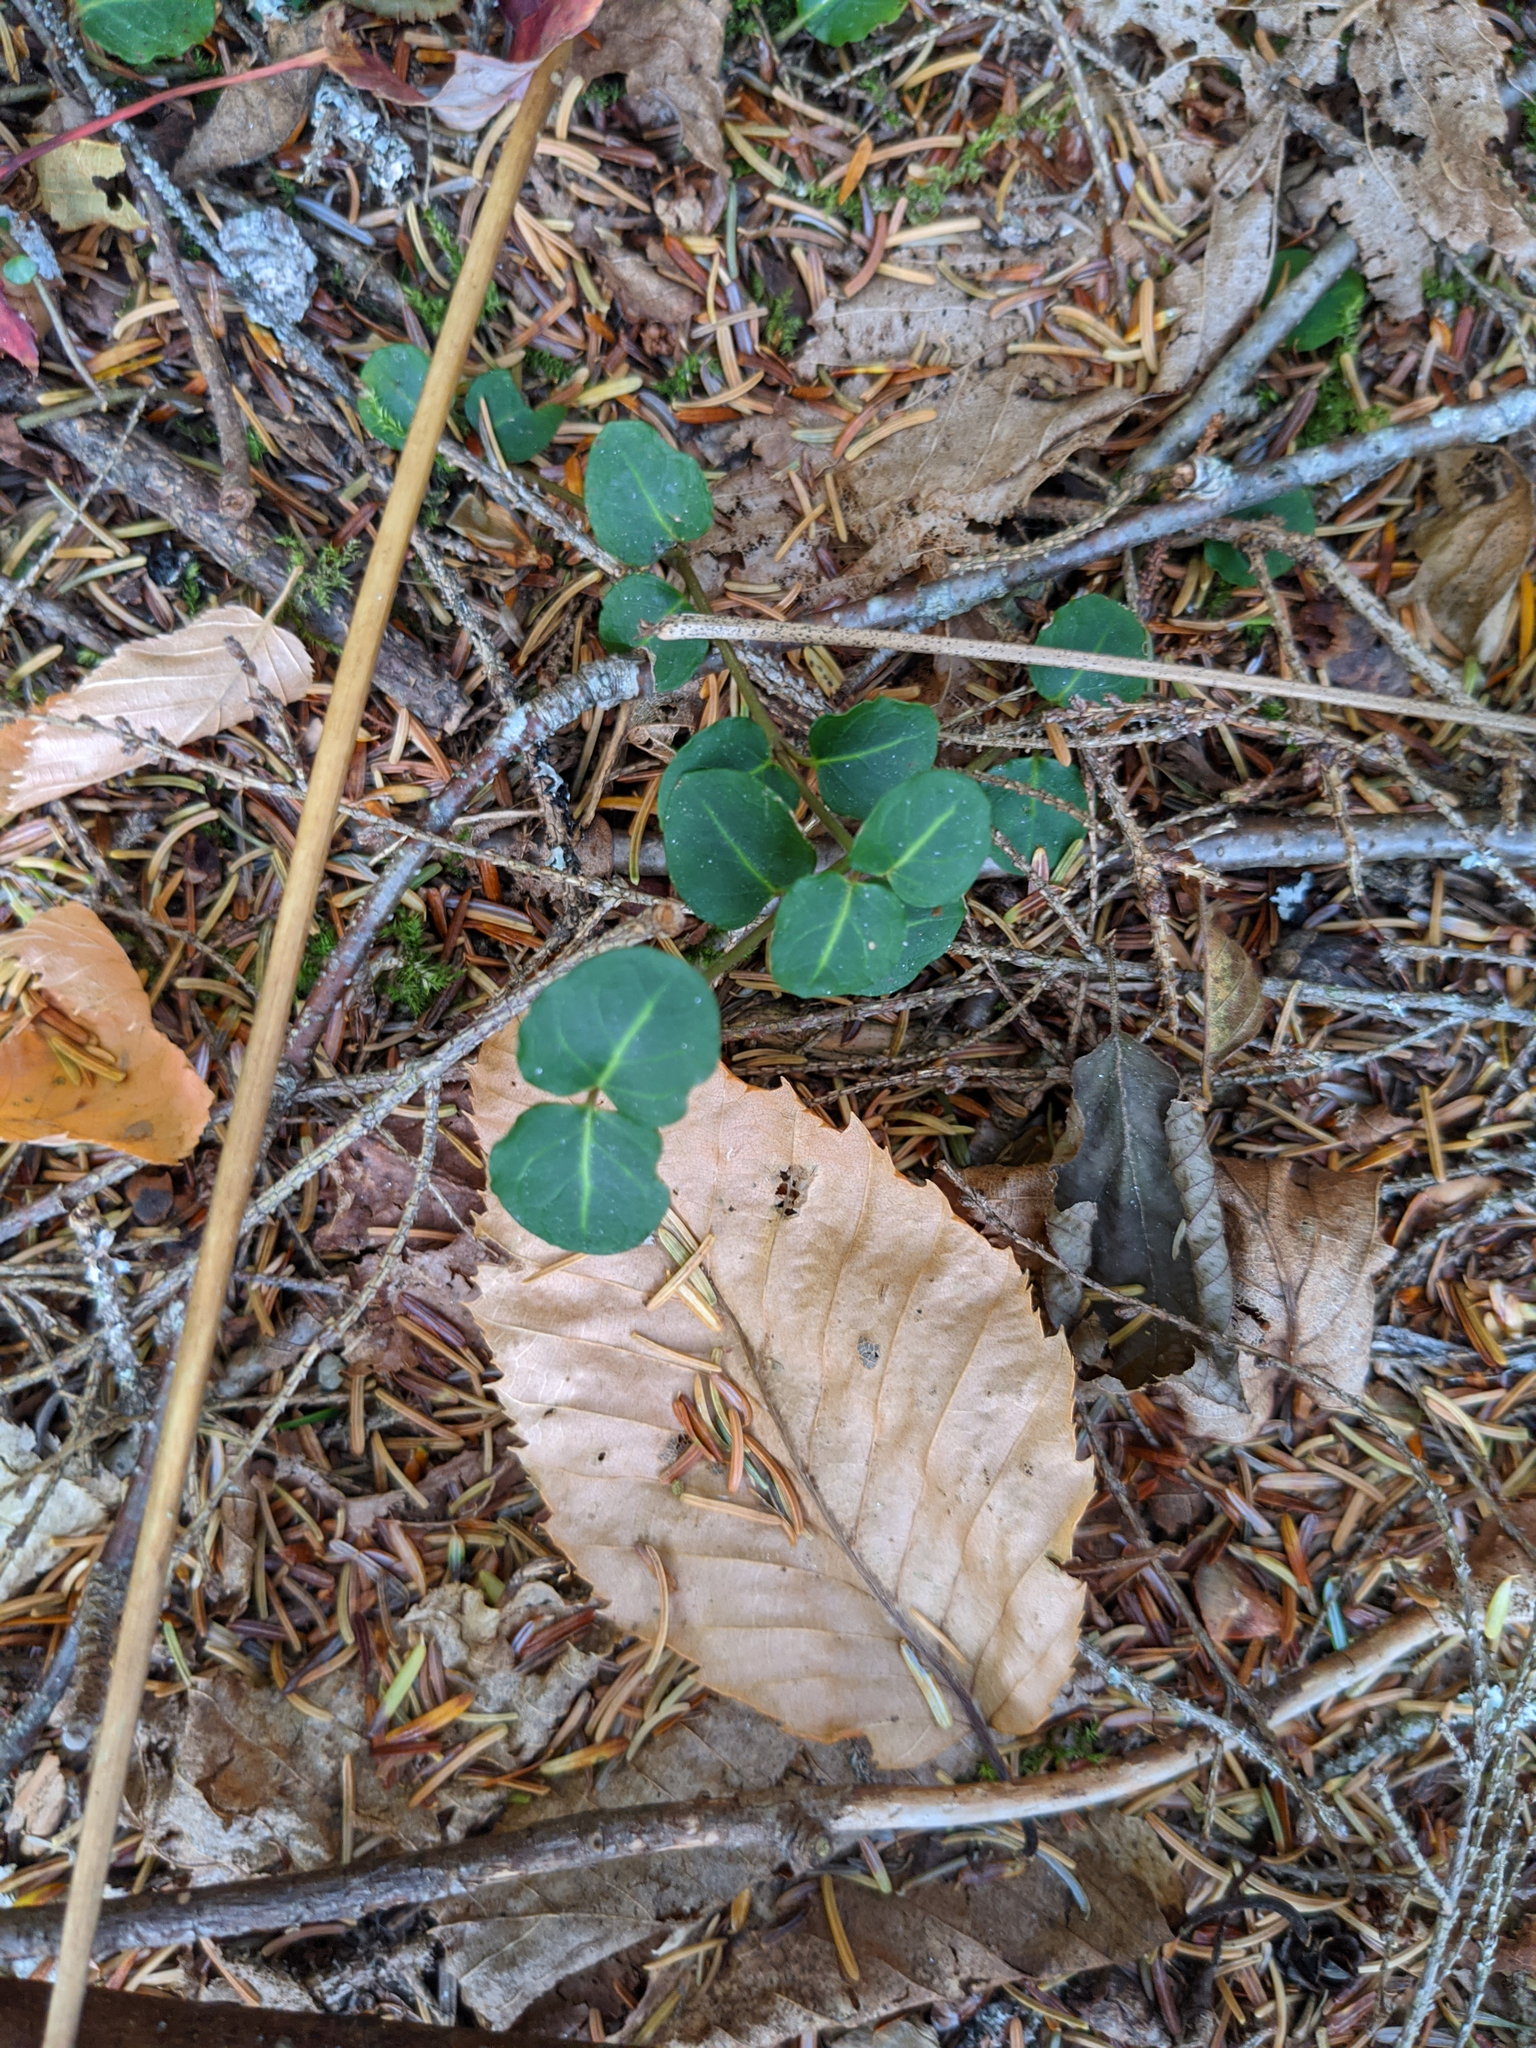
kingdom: Plantae
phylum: Tracheophyta
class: Magnoliopsida
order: Gentianales
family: Rubiaceae
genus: Mitchella
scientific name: Mitchella repens
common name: Partridge-berry
